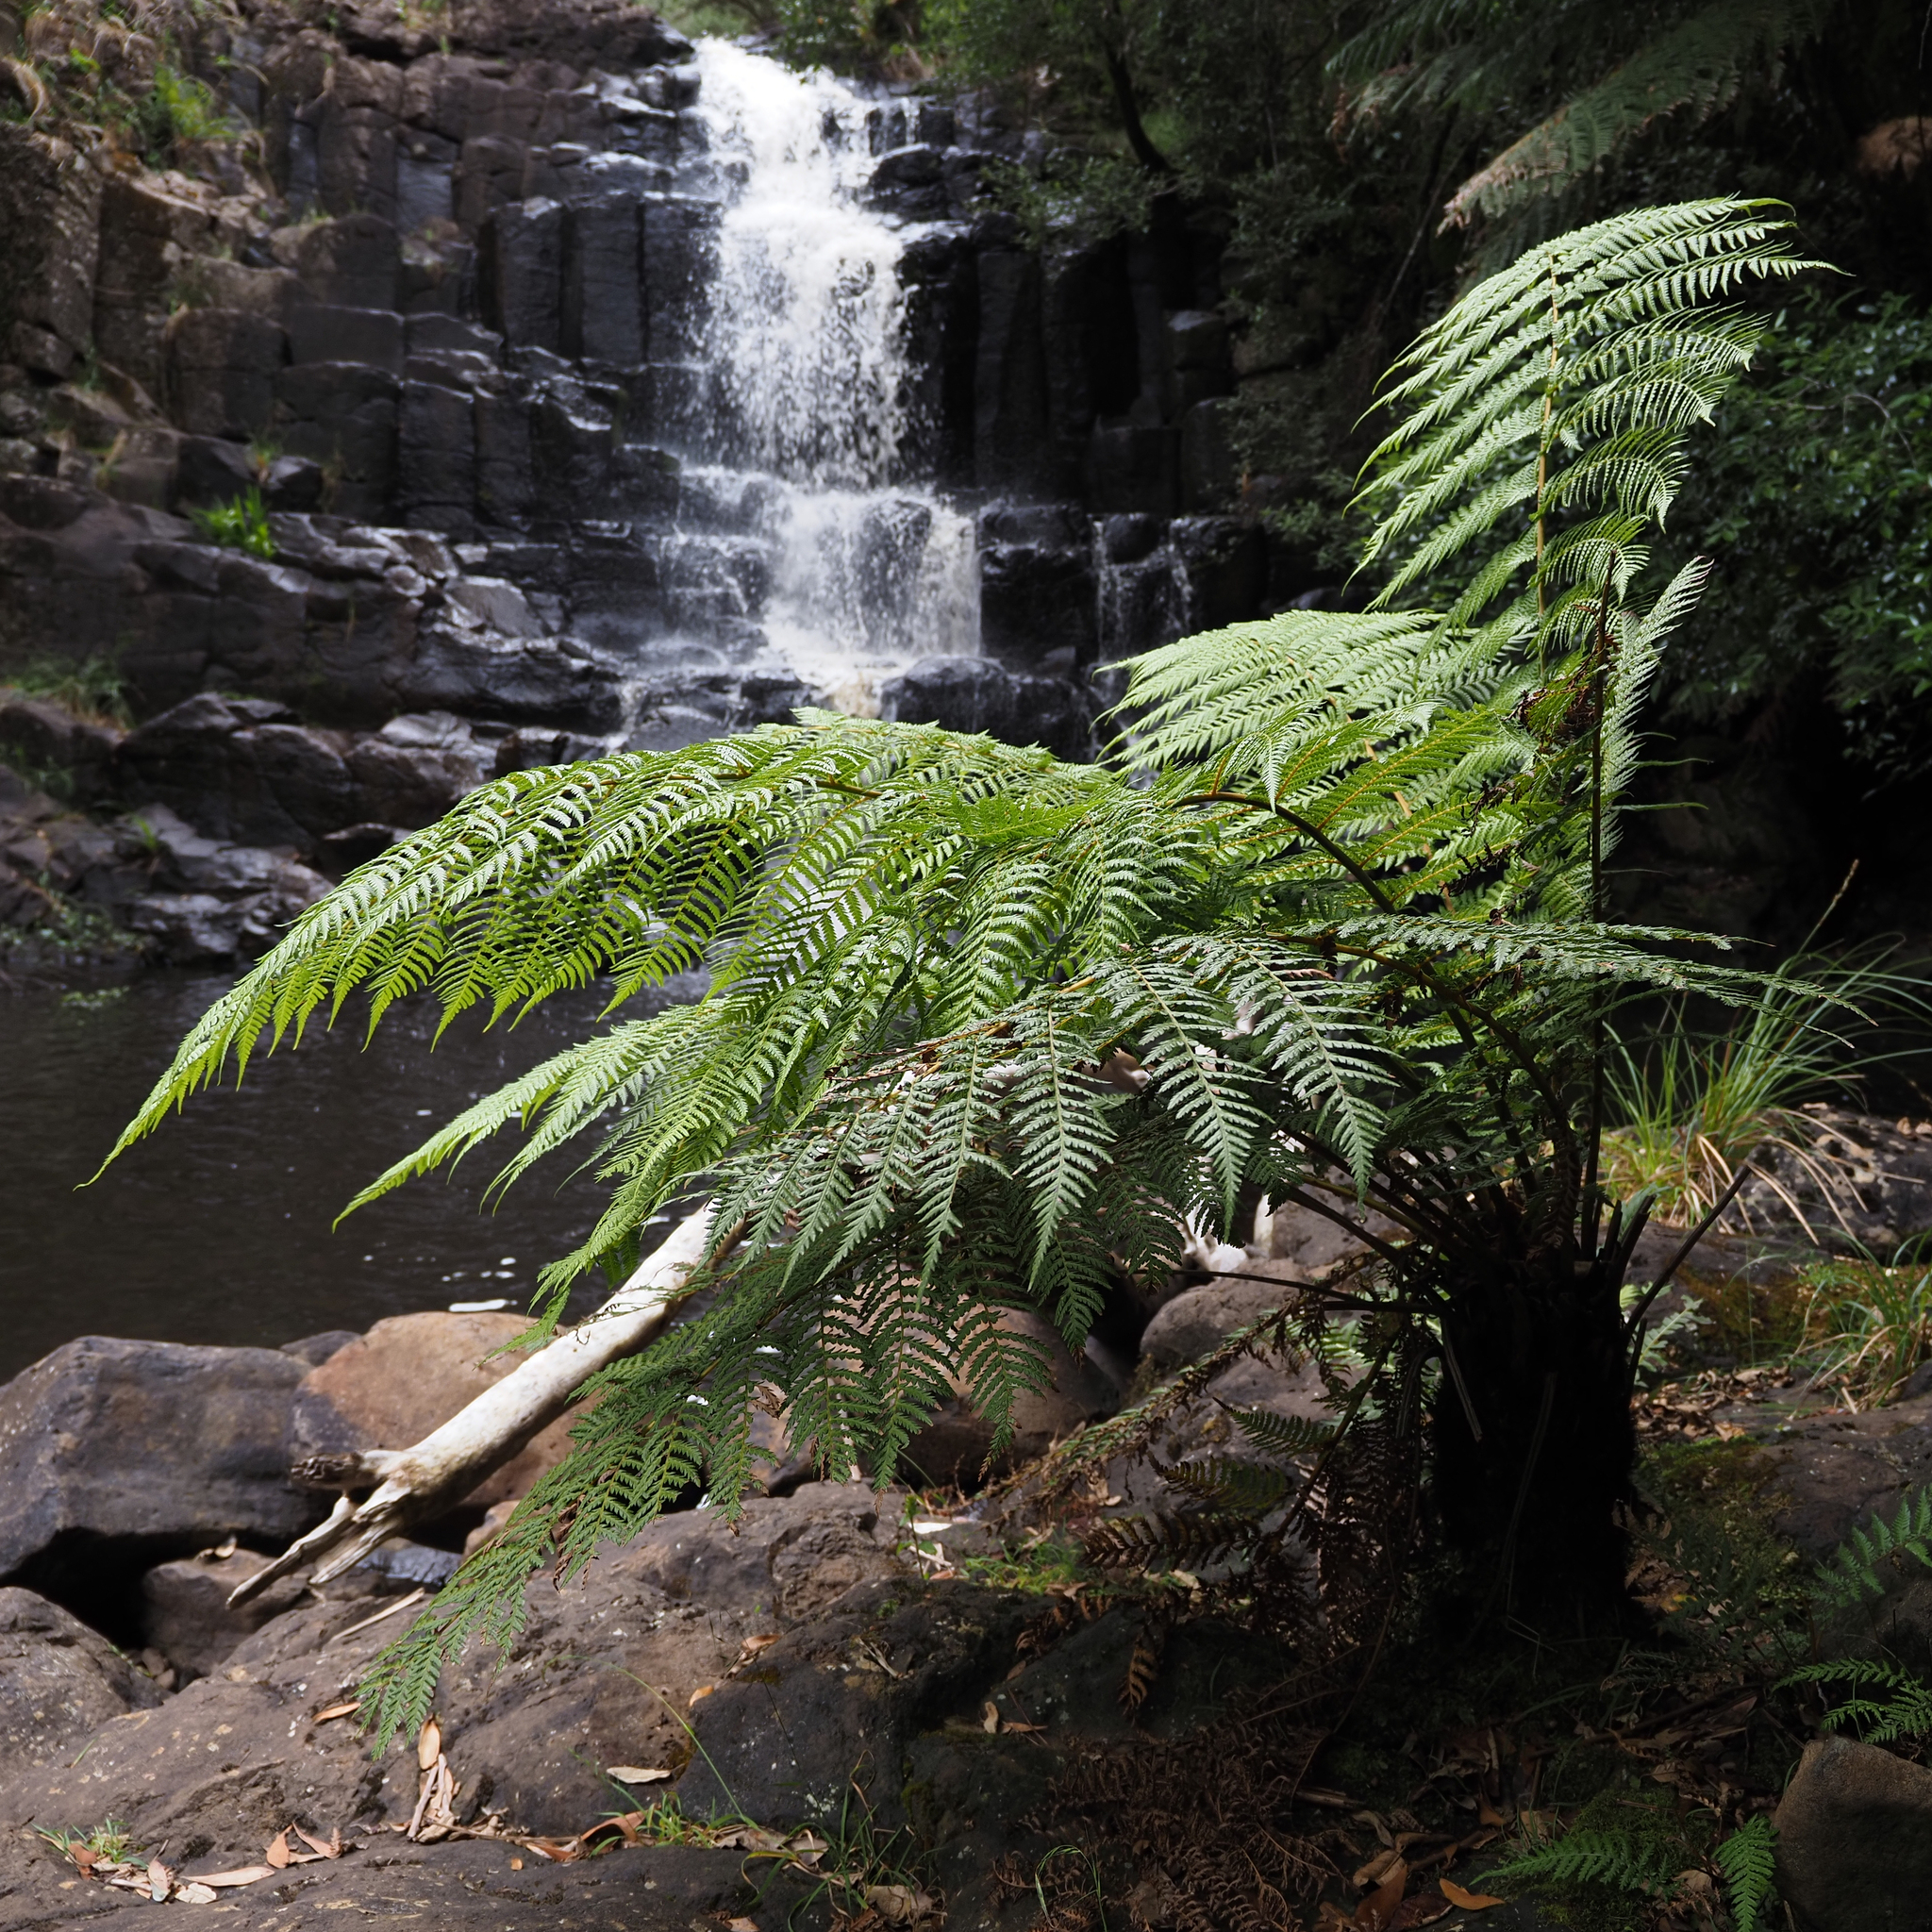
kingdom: Plantae
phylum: Tracheophyta
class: Polypodiopsida
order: Cyatheales
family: Dicksoniaceae
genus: Dicksonia
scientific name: Dicksonia antarctica
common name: Australian treefern
